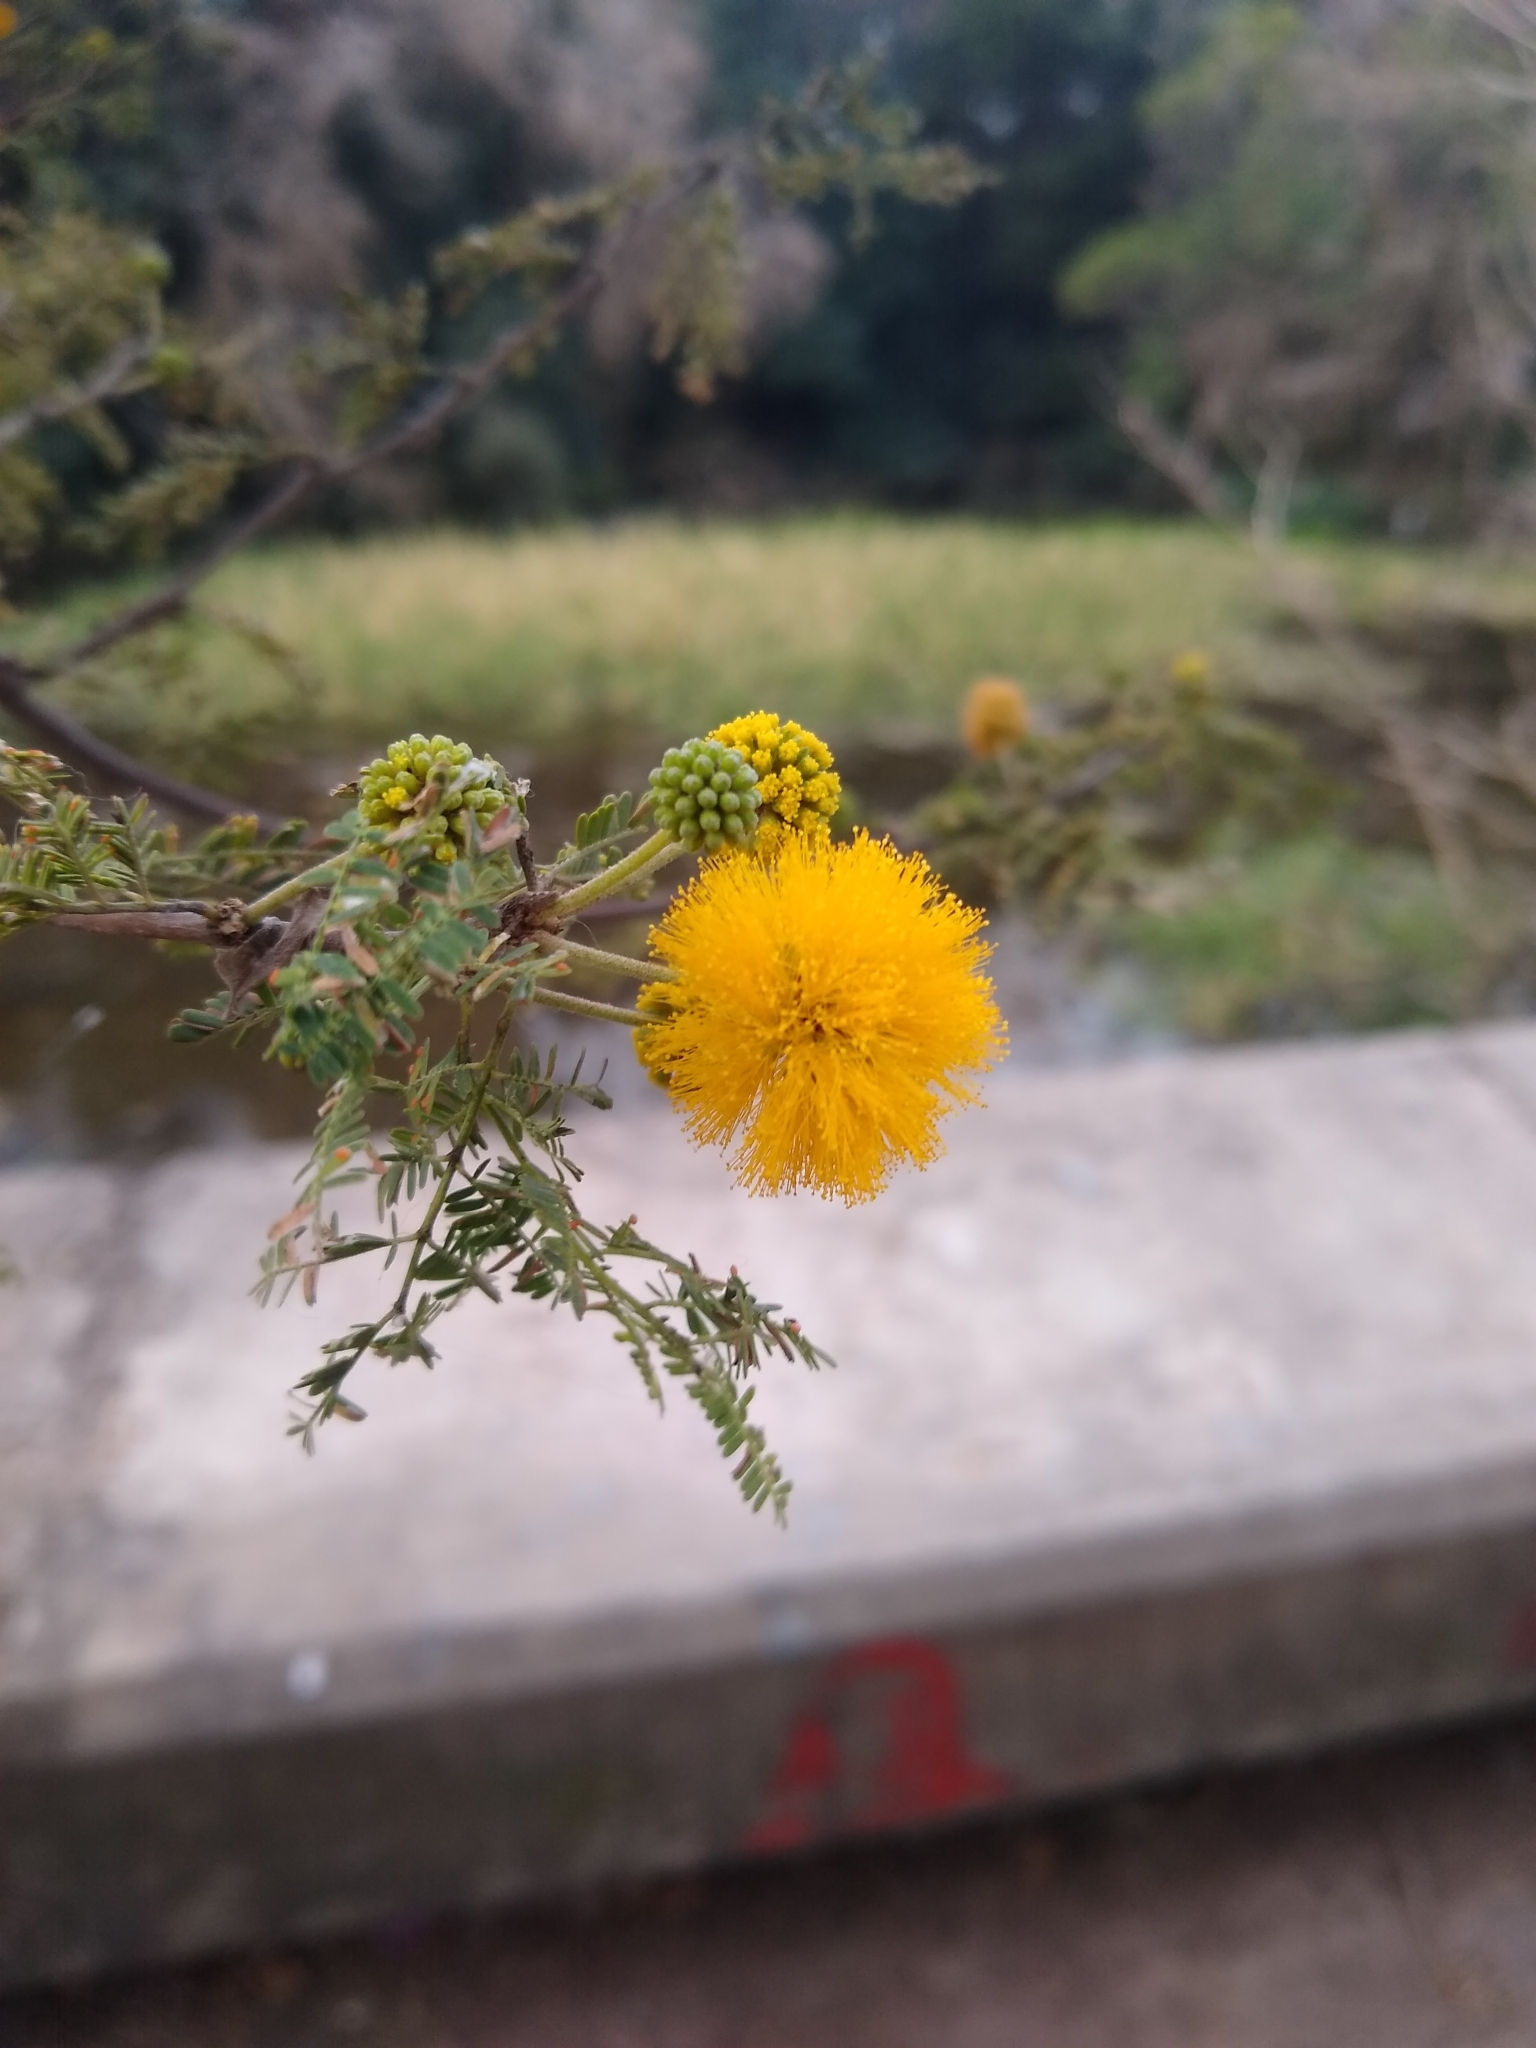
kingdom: Plantae
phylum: Tracheophyta
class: Magnoliopsida
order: Fabales
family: Fabaceae
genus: Vachellia
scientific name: Vachellia caven
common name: Roman cassie
